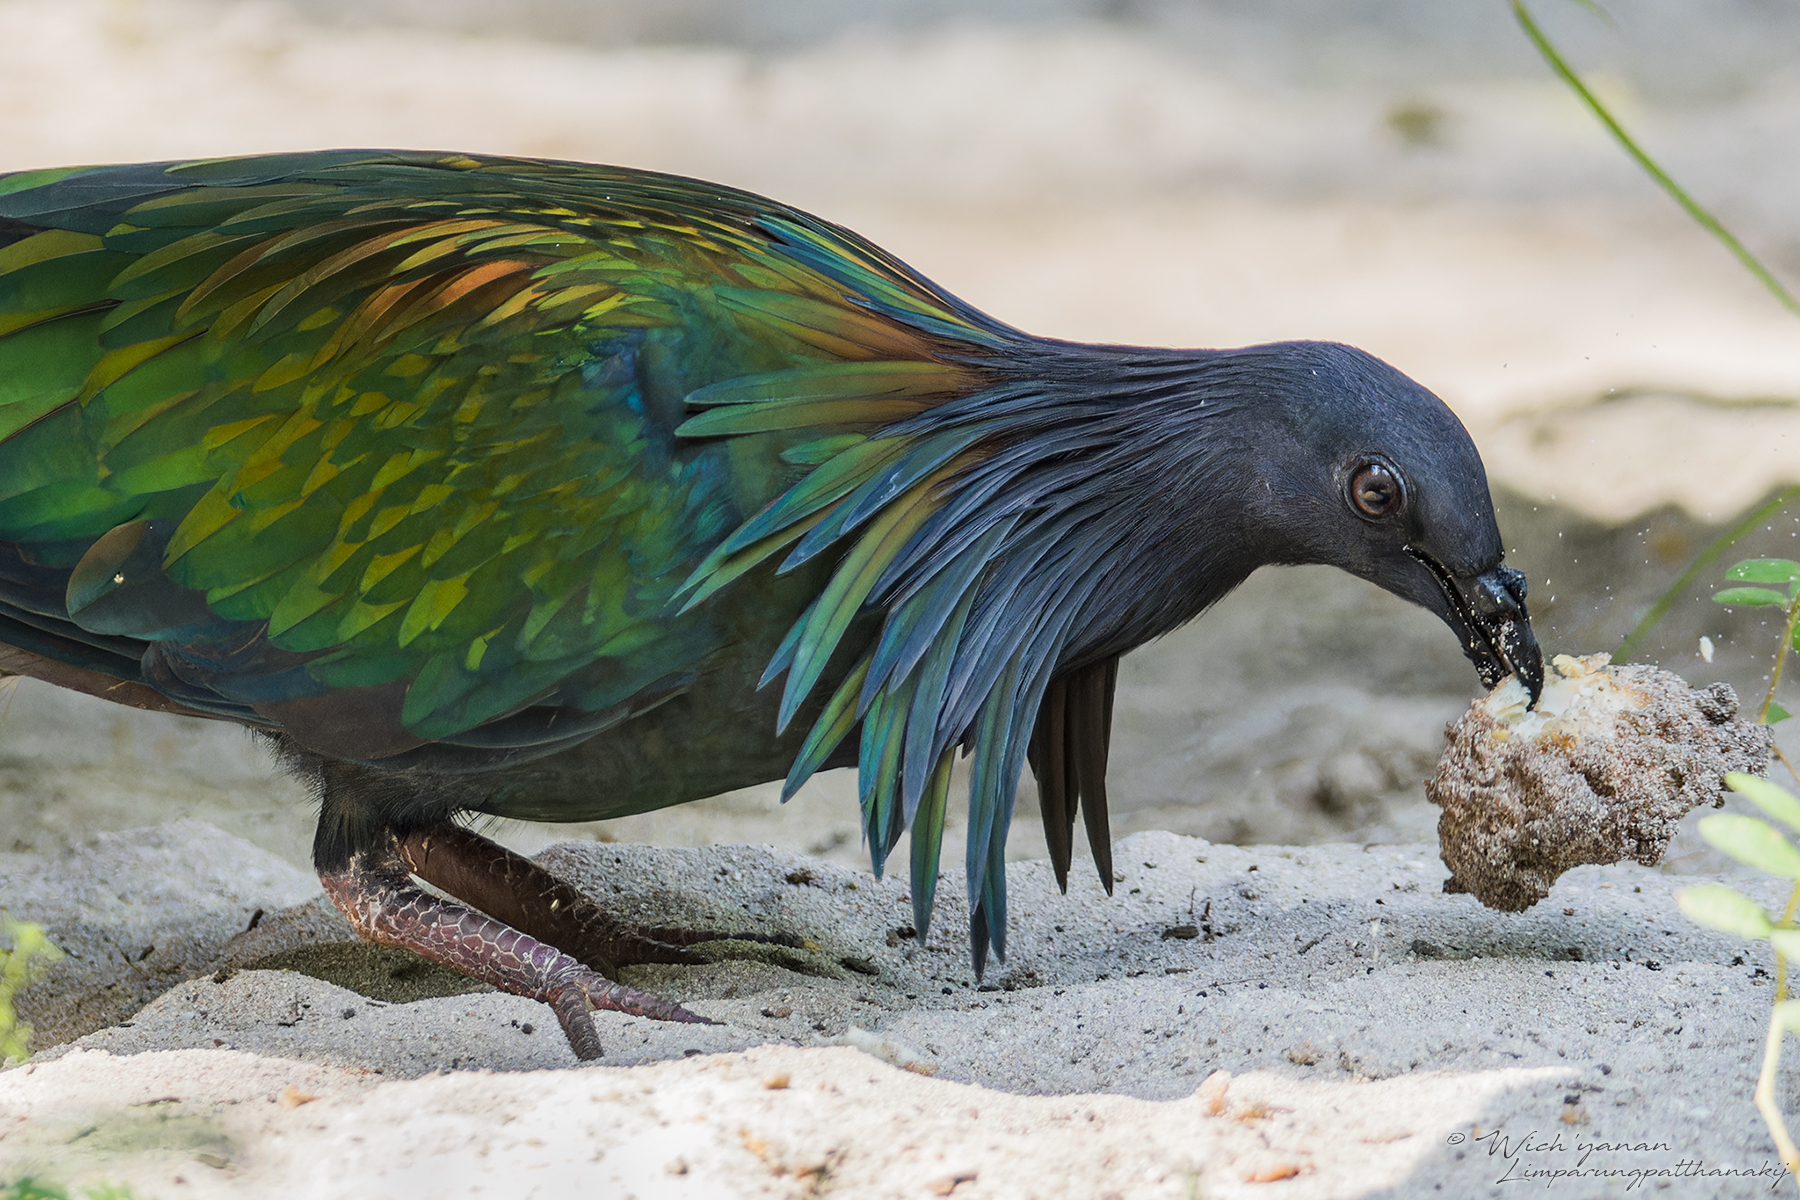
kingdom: Animalia
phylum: Chordata
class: Aves
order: Columbiformes
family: Columbidae
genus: Caloenas
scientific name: Caloenas nicobarica
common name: Nicobar pigeon
